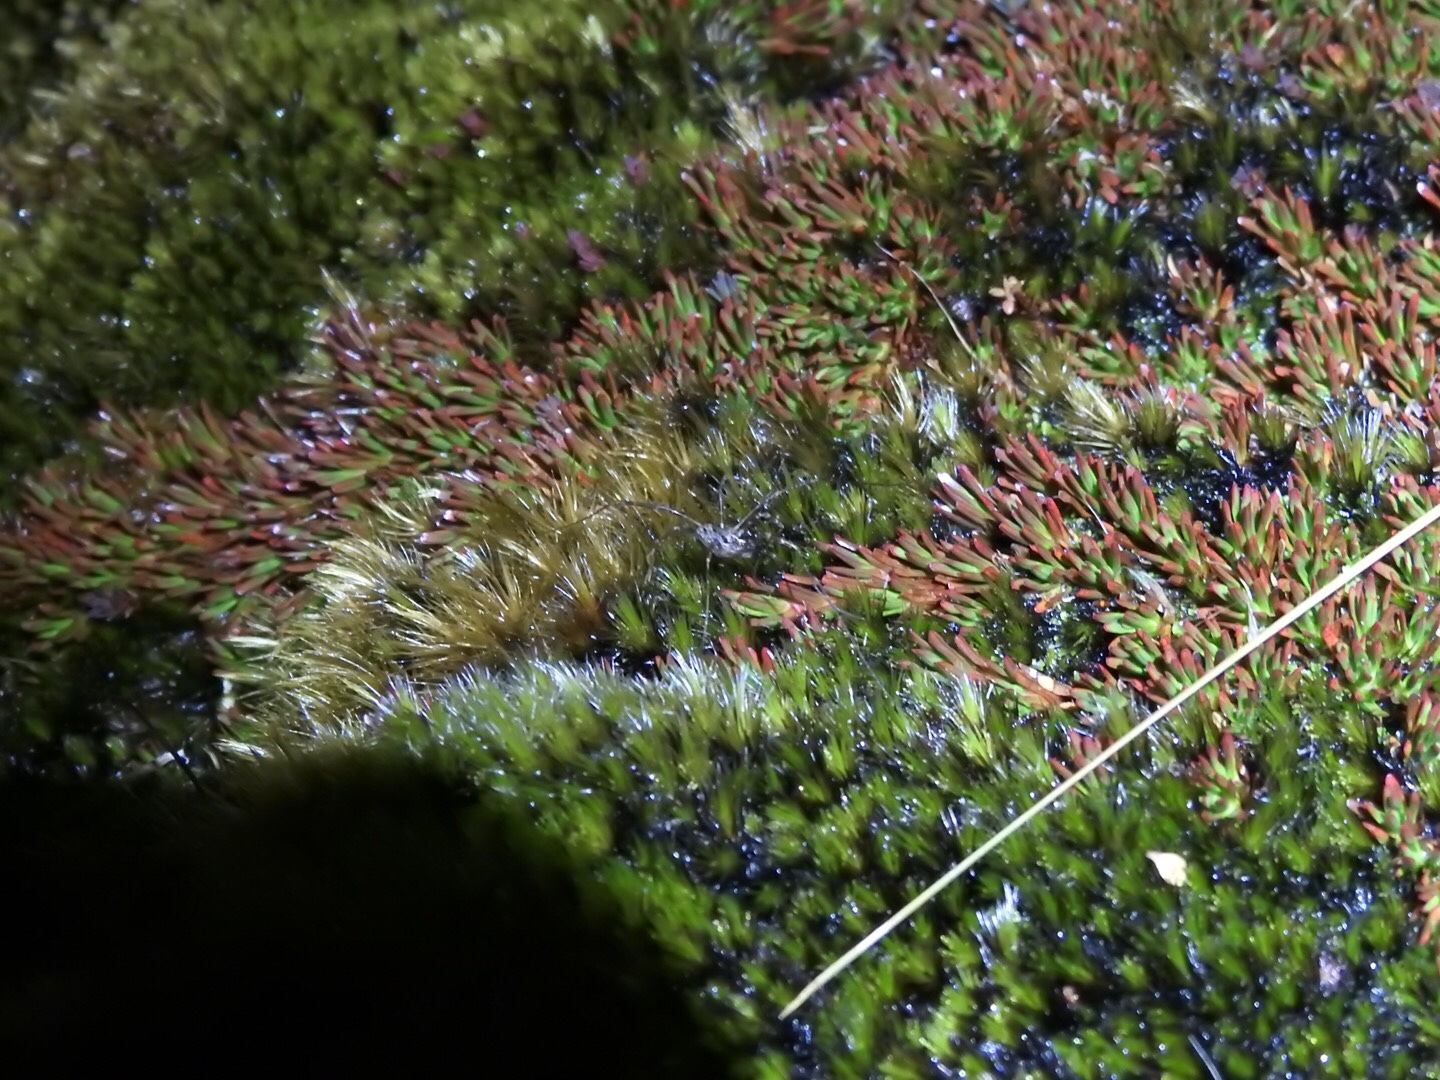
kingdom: Plantae
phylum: Tracheophyta
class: Magnoliopsida
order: Ericales
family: Ericaceae
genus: Dracophyllum
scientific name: Dracophyllum politum
